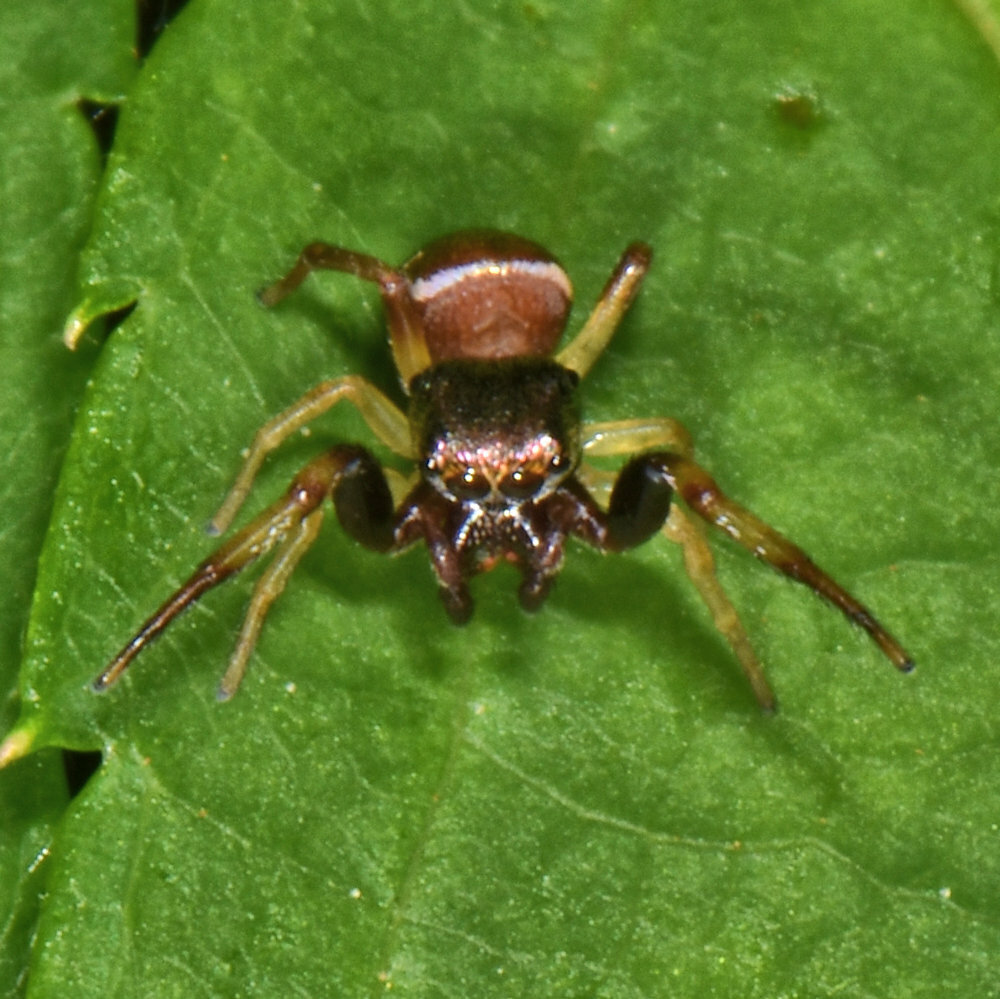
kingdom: Animalia
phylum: Arthropoda
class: Arachnida
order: Araneae
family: Salticidae
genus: Zygoballus
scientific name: Zygoballus rufipes
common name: Jumping spiders
